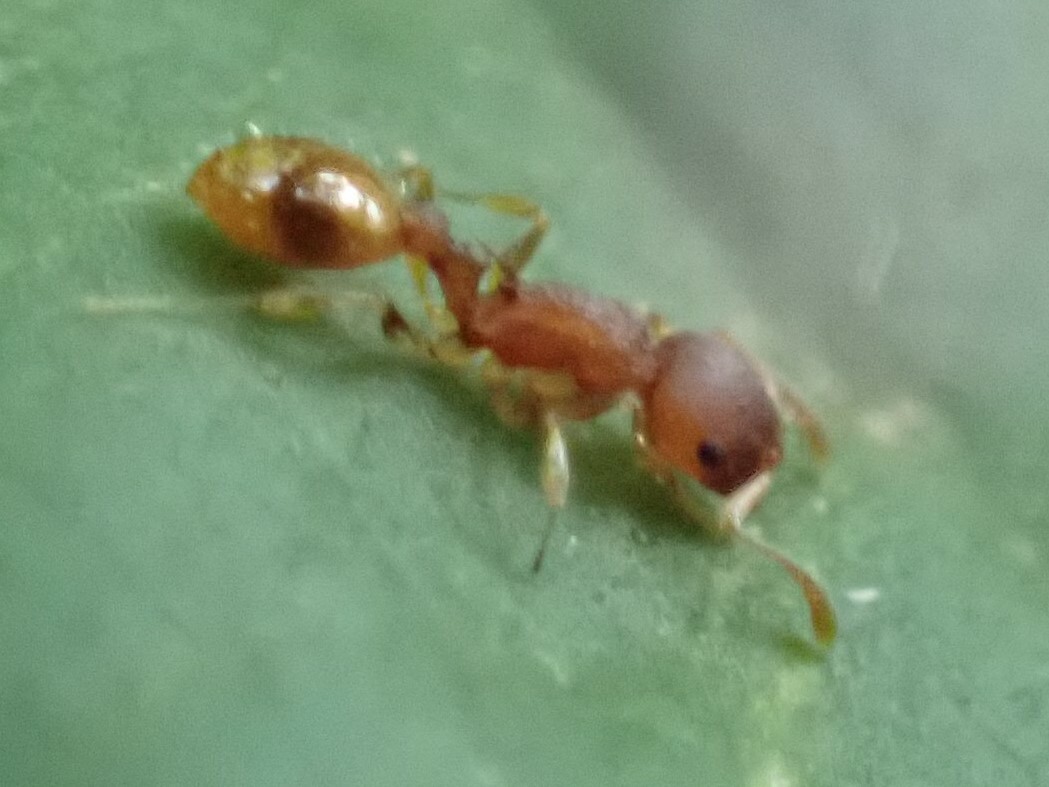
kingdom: Animalia
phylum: Arthropoda
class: Insecta
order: Hymenoptera
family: Formicidae
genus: Temnothorax
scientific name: Temnothorax curvispinosus
